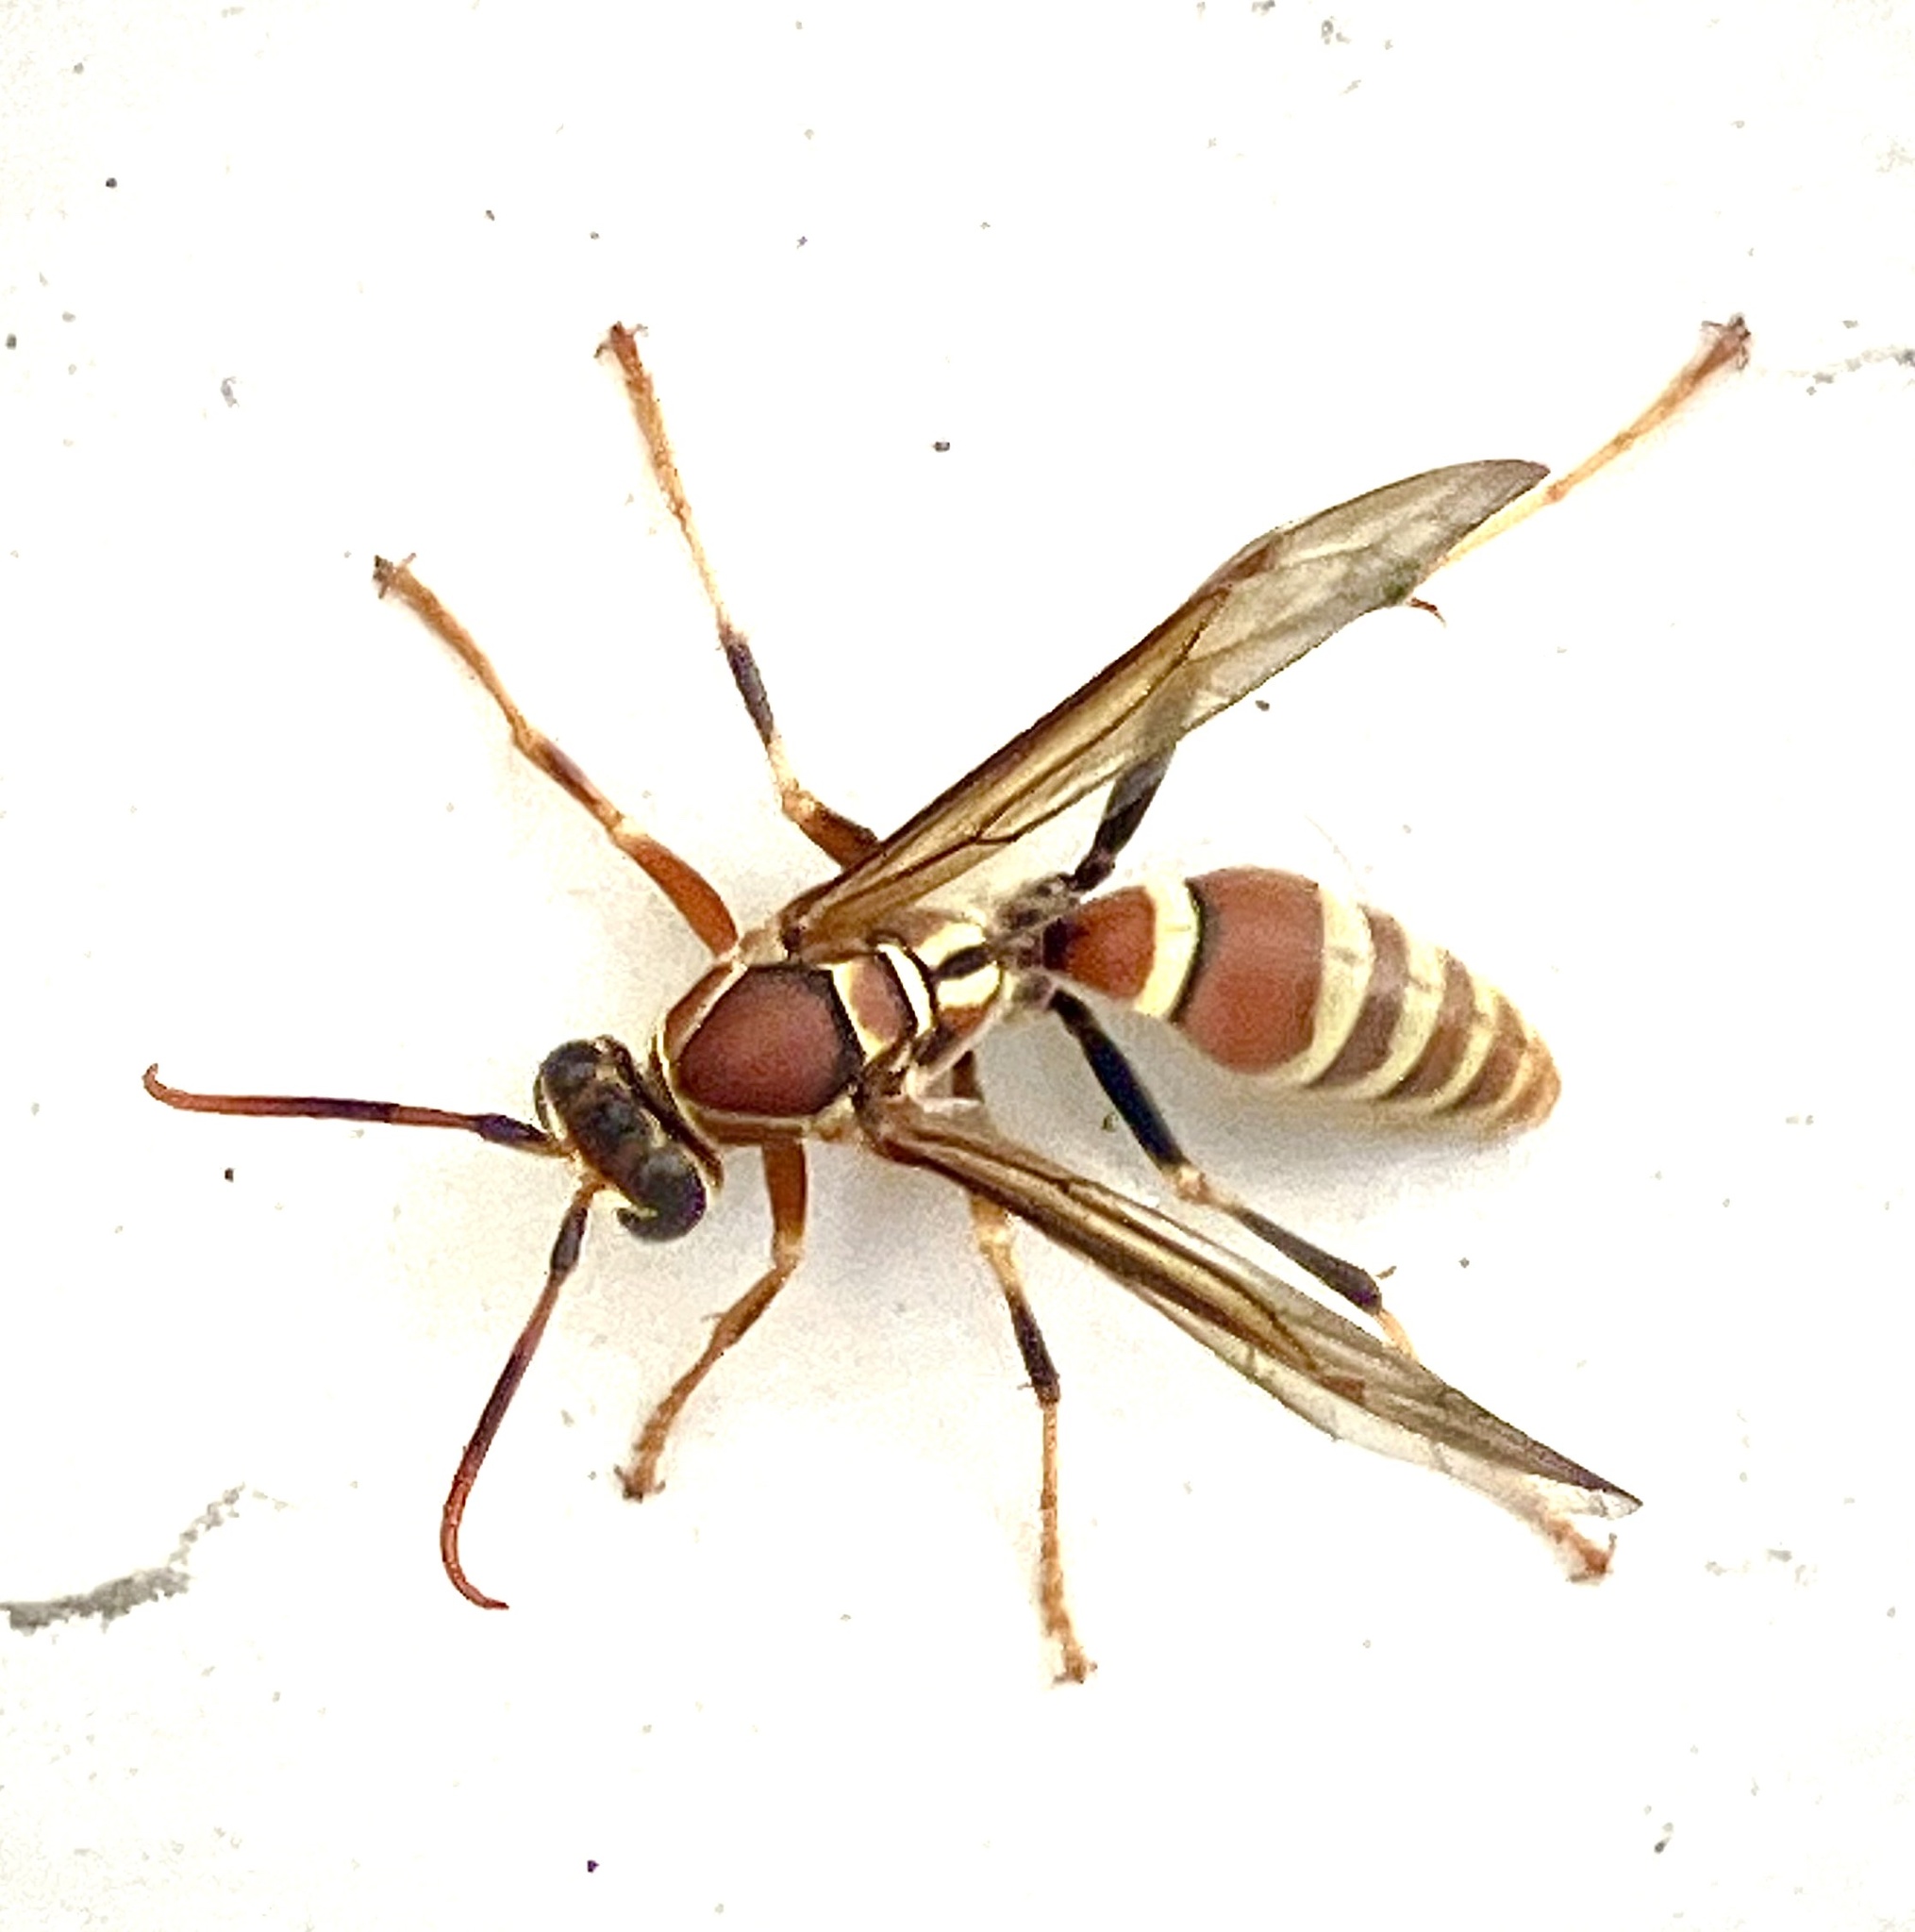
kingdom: Animalia
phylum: Arthropoda
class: Insecta
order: Hymenoptera
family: Eumenidae
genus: Polistes
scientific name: Polistes exclamans
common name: Paper wasp
